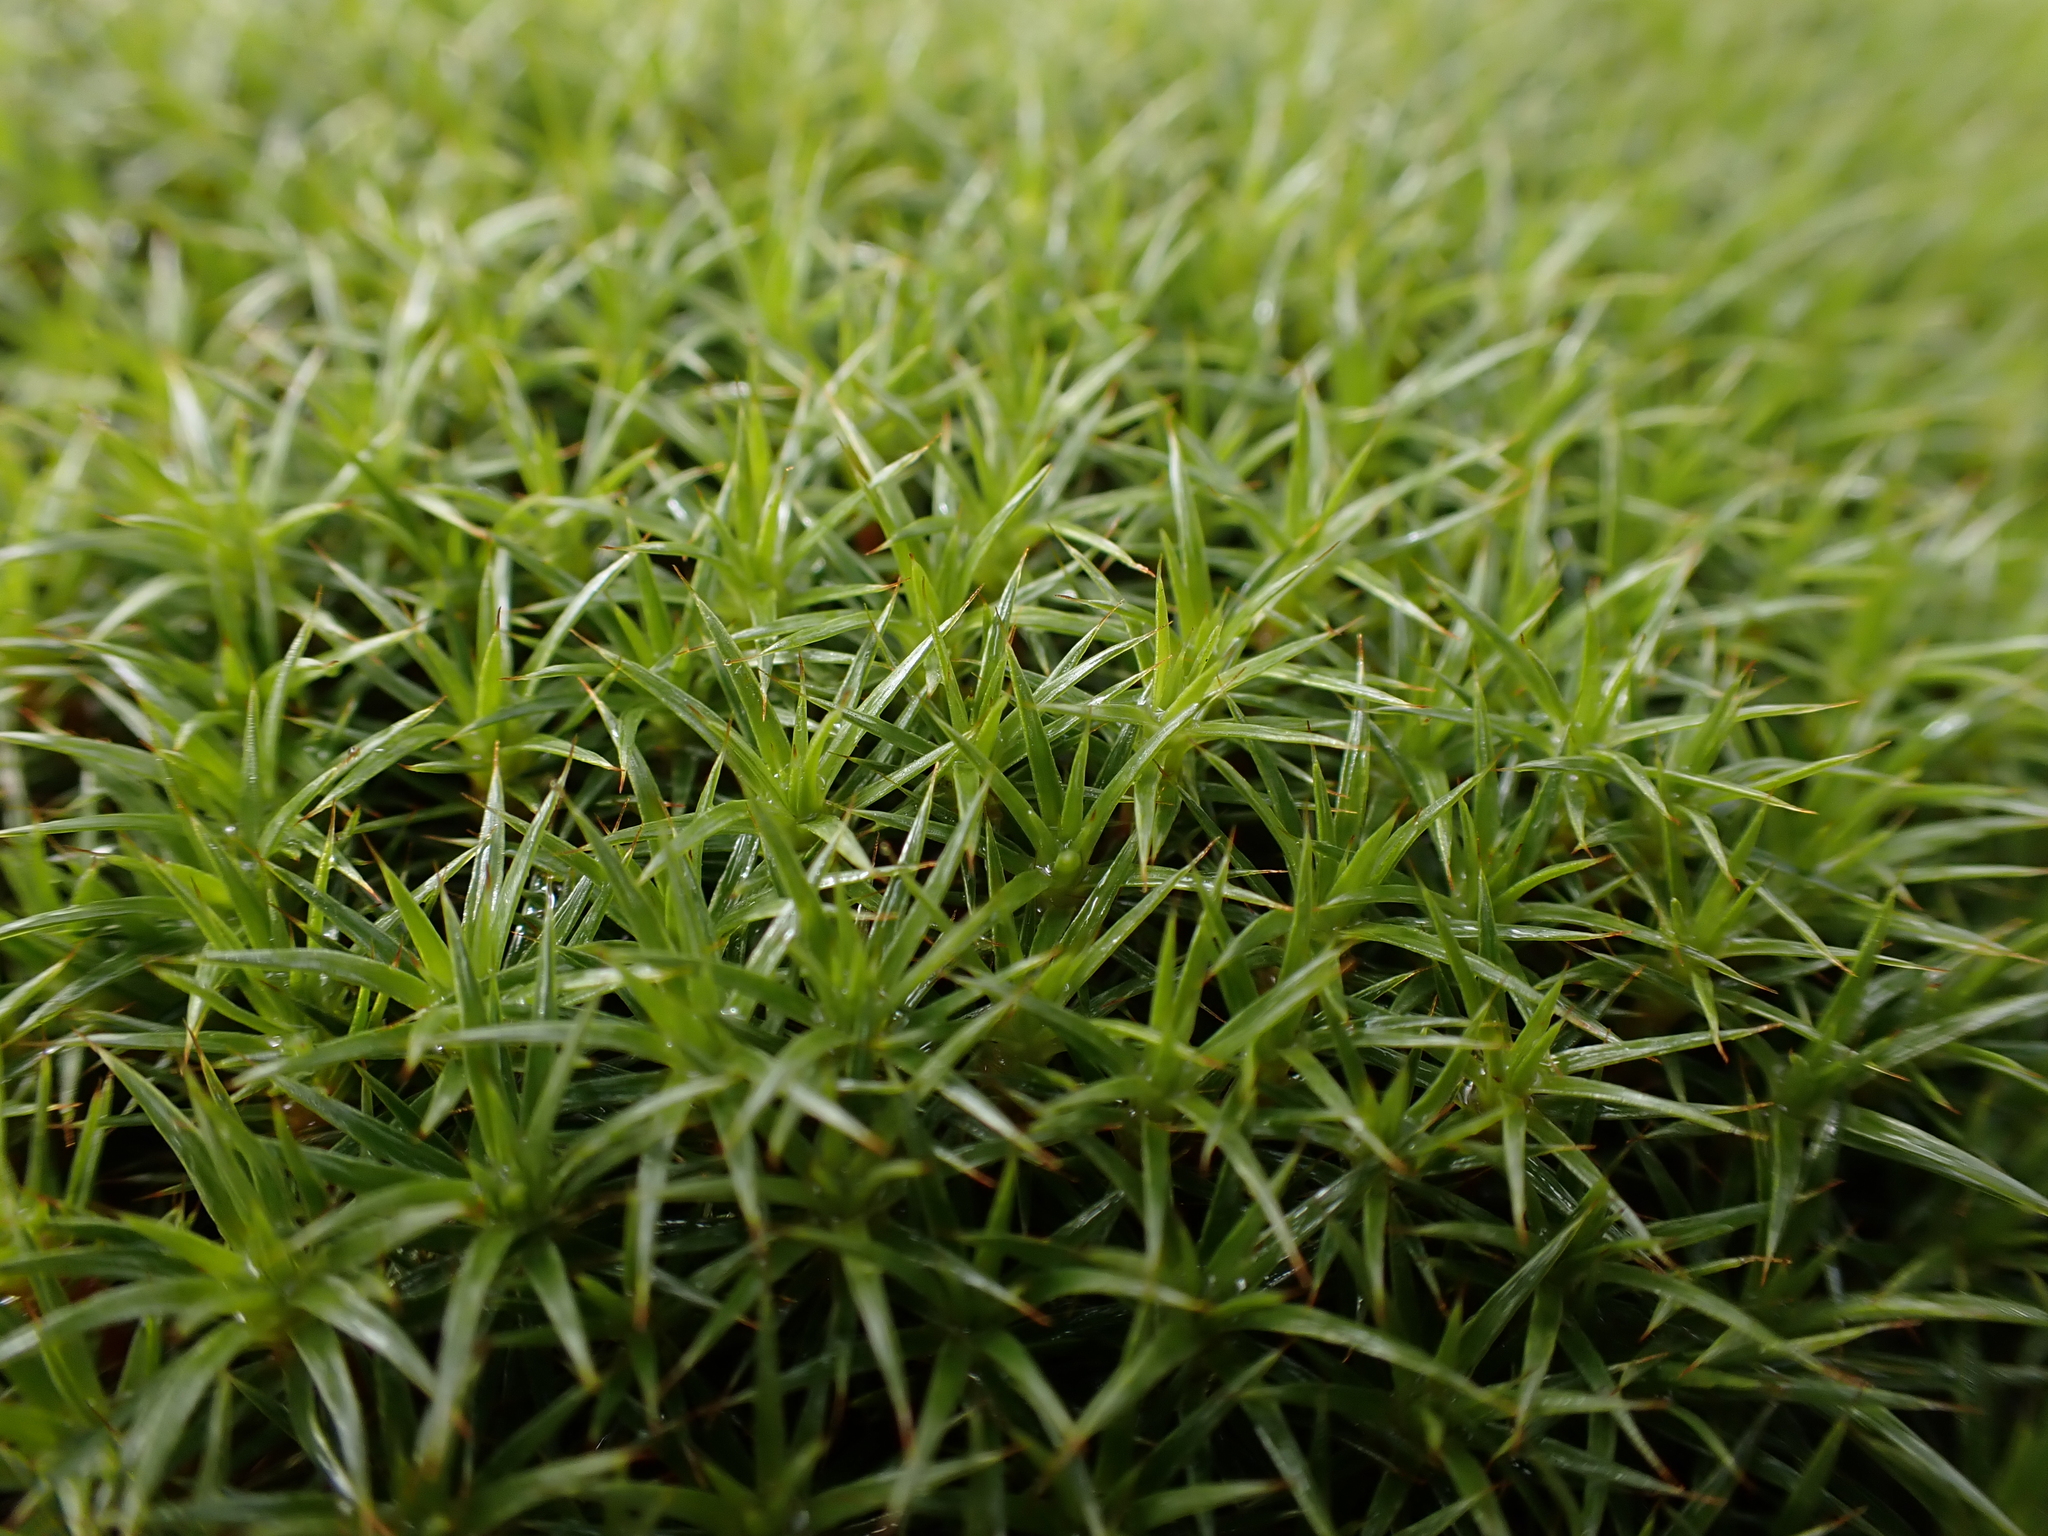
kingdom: Plantae
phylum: Bryophyta
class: Polytrichopsida
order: Polytrichales
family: Polytrichaceae
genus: Polytrichum
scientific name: Polytrichum juniperinum
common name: Juniper haircap moss
